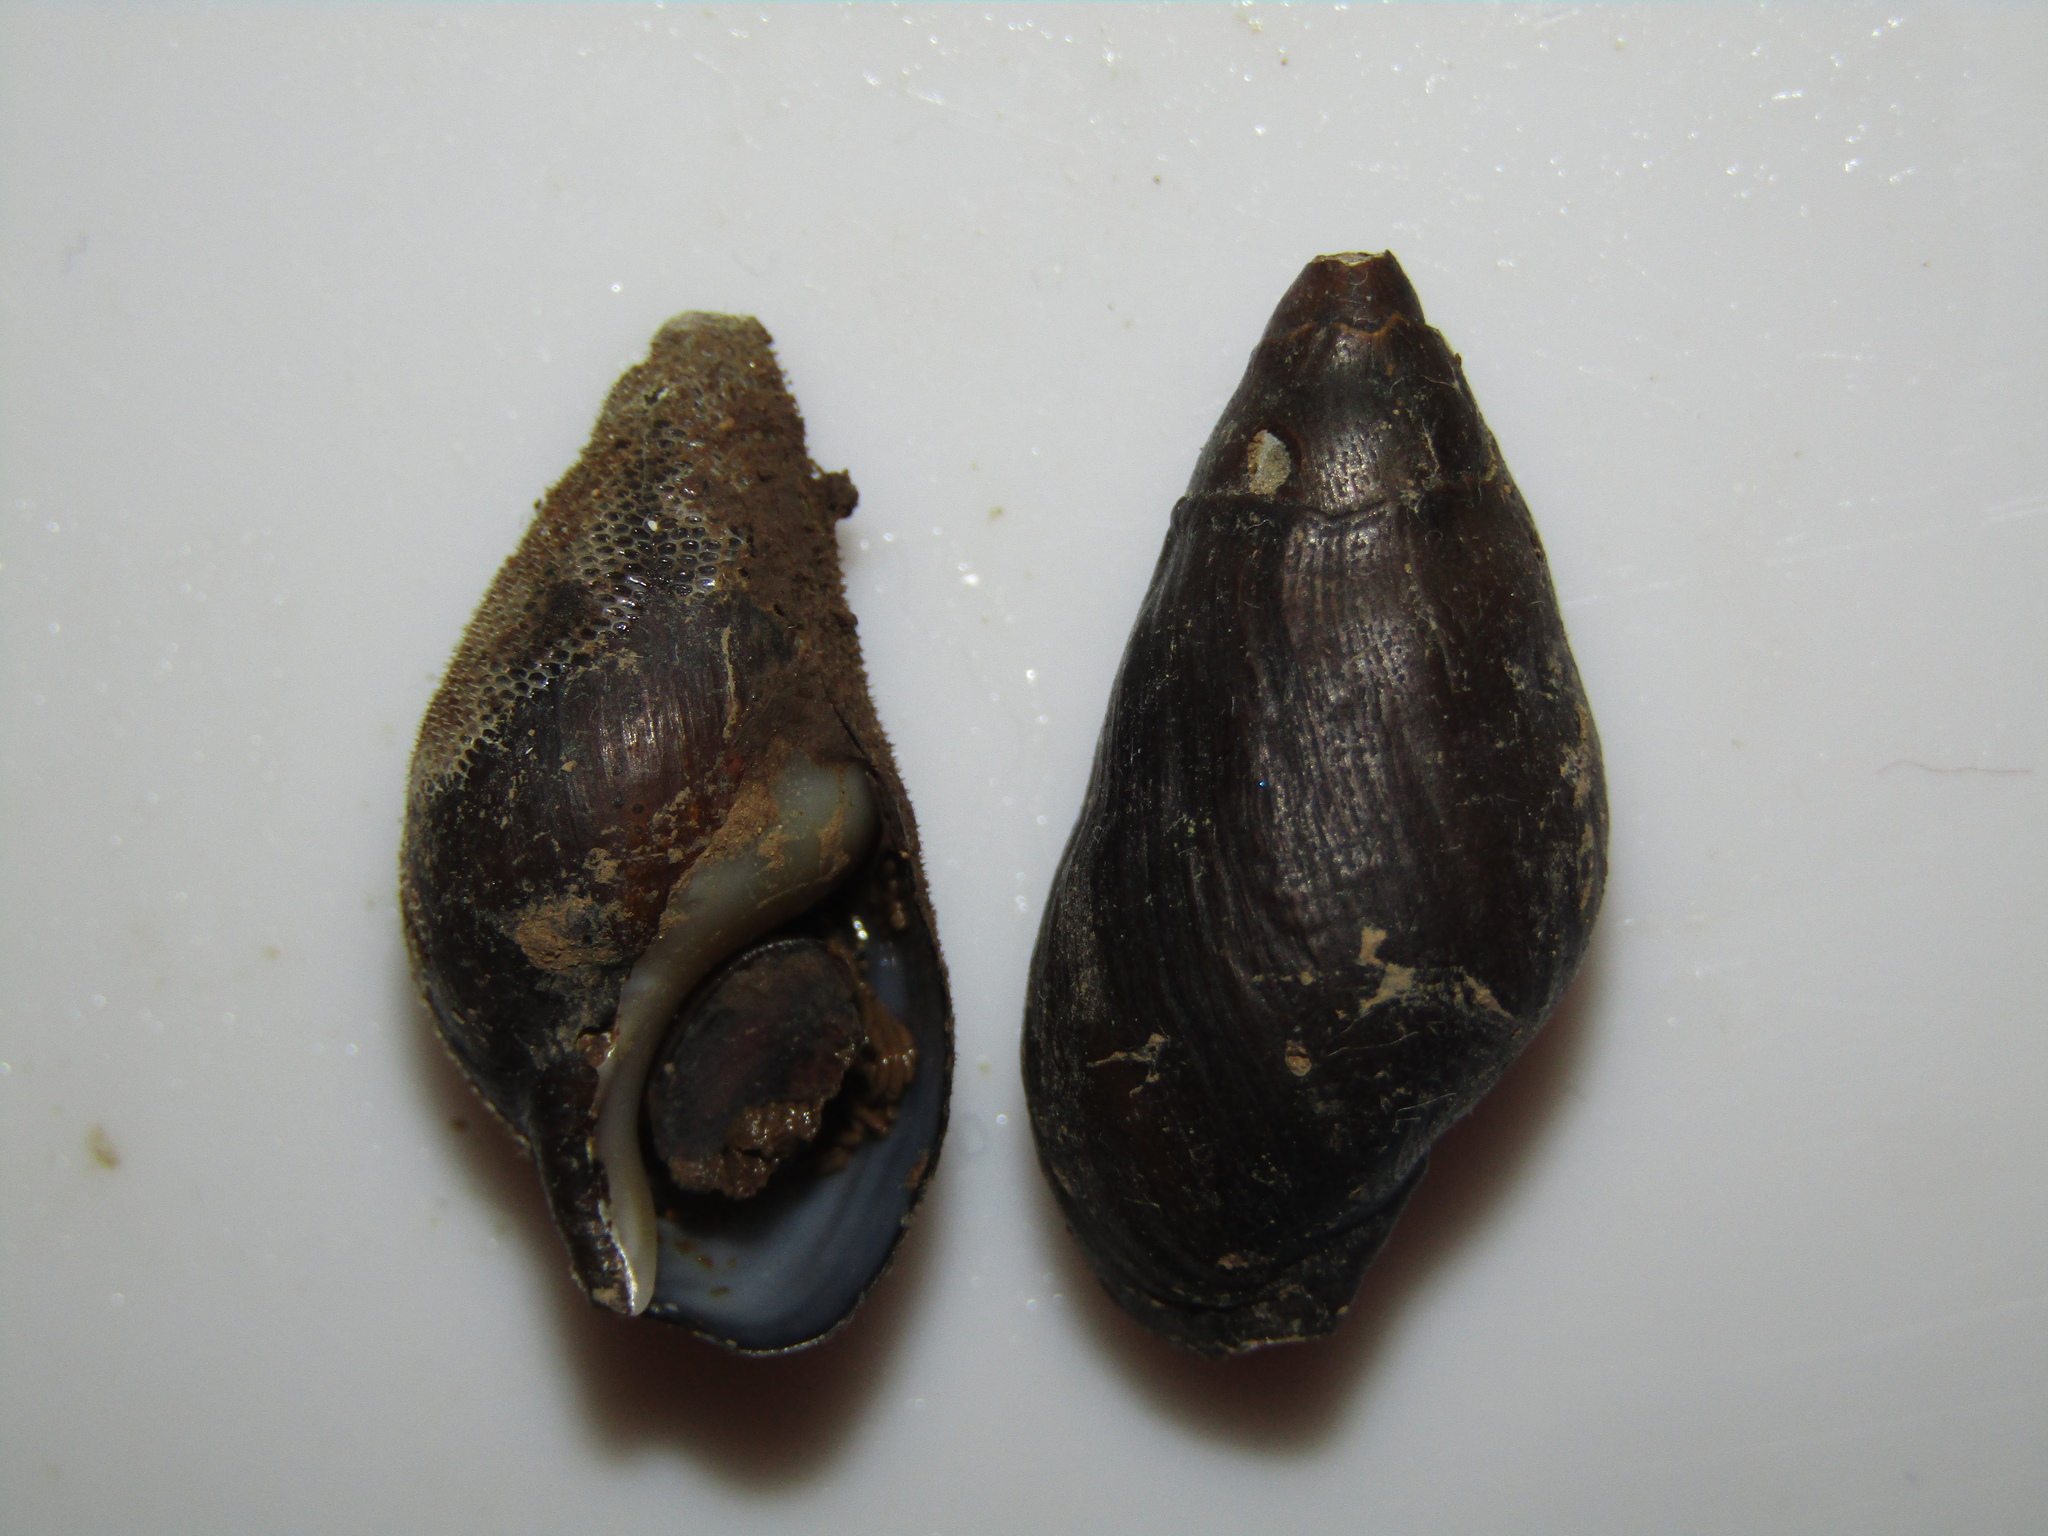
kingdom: Animalia
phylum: Mollusca
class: Gastropoda
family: Zemelanopsidae
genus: Zemelanopsis
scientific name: Zemelanopsis trifasciata
